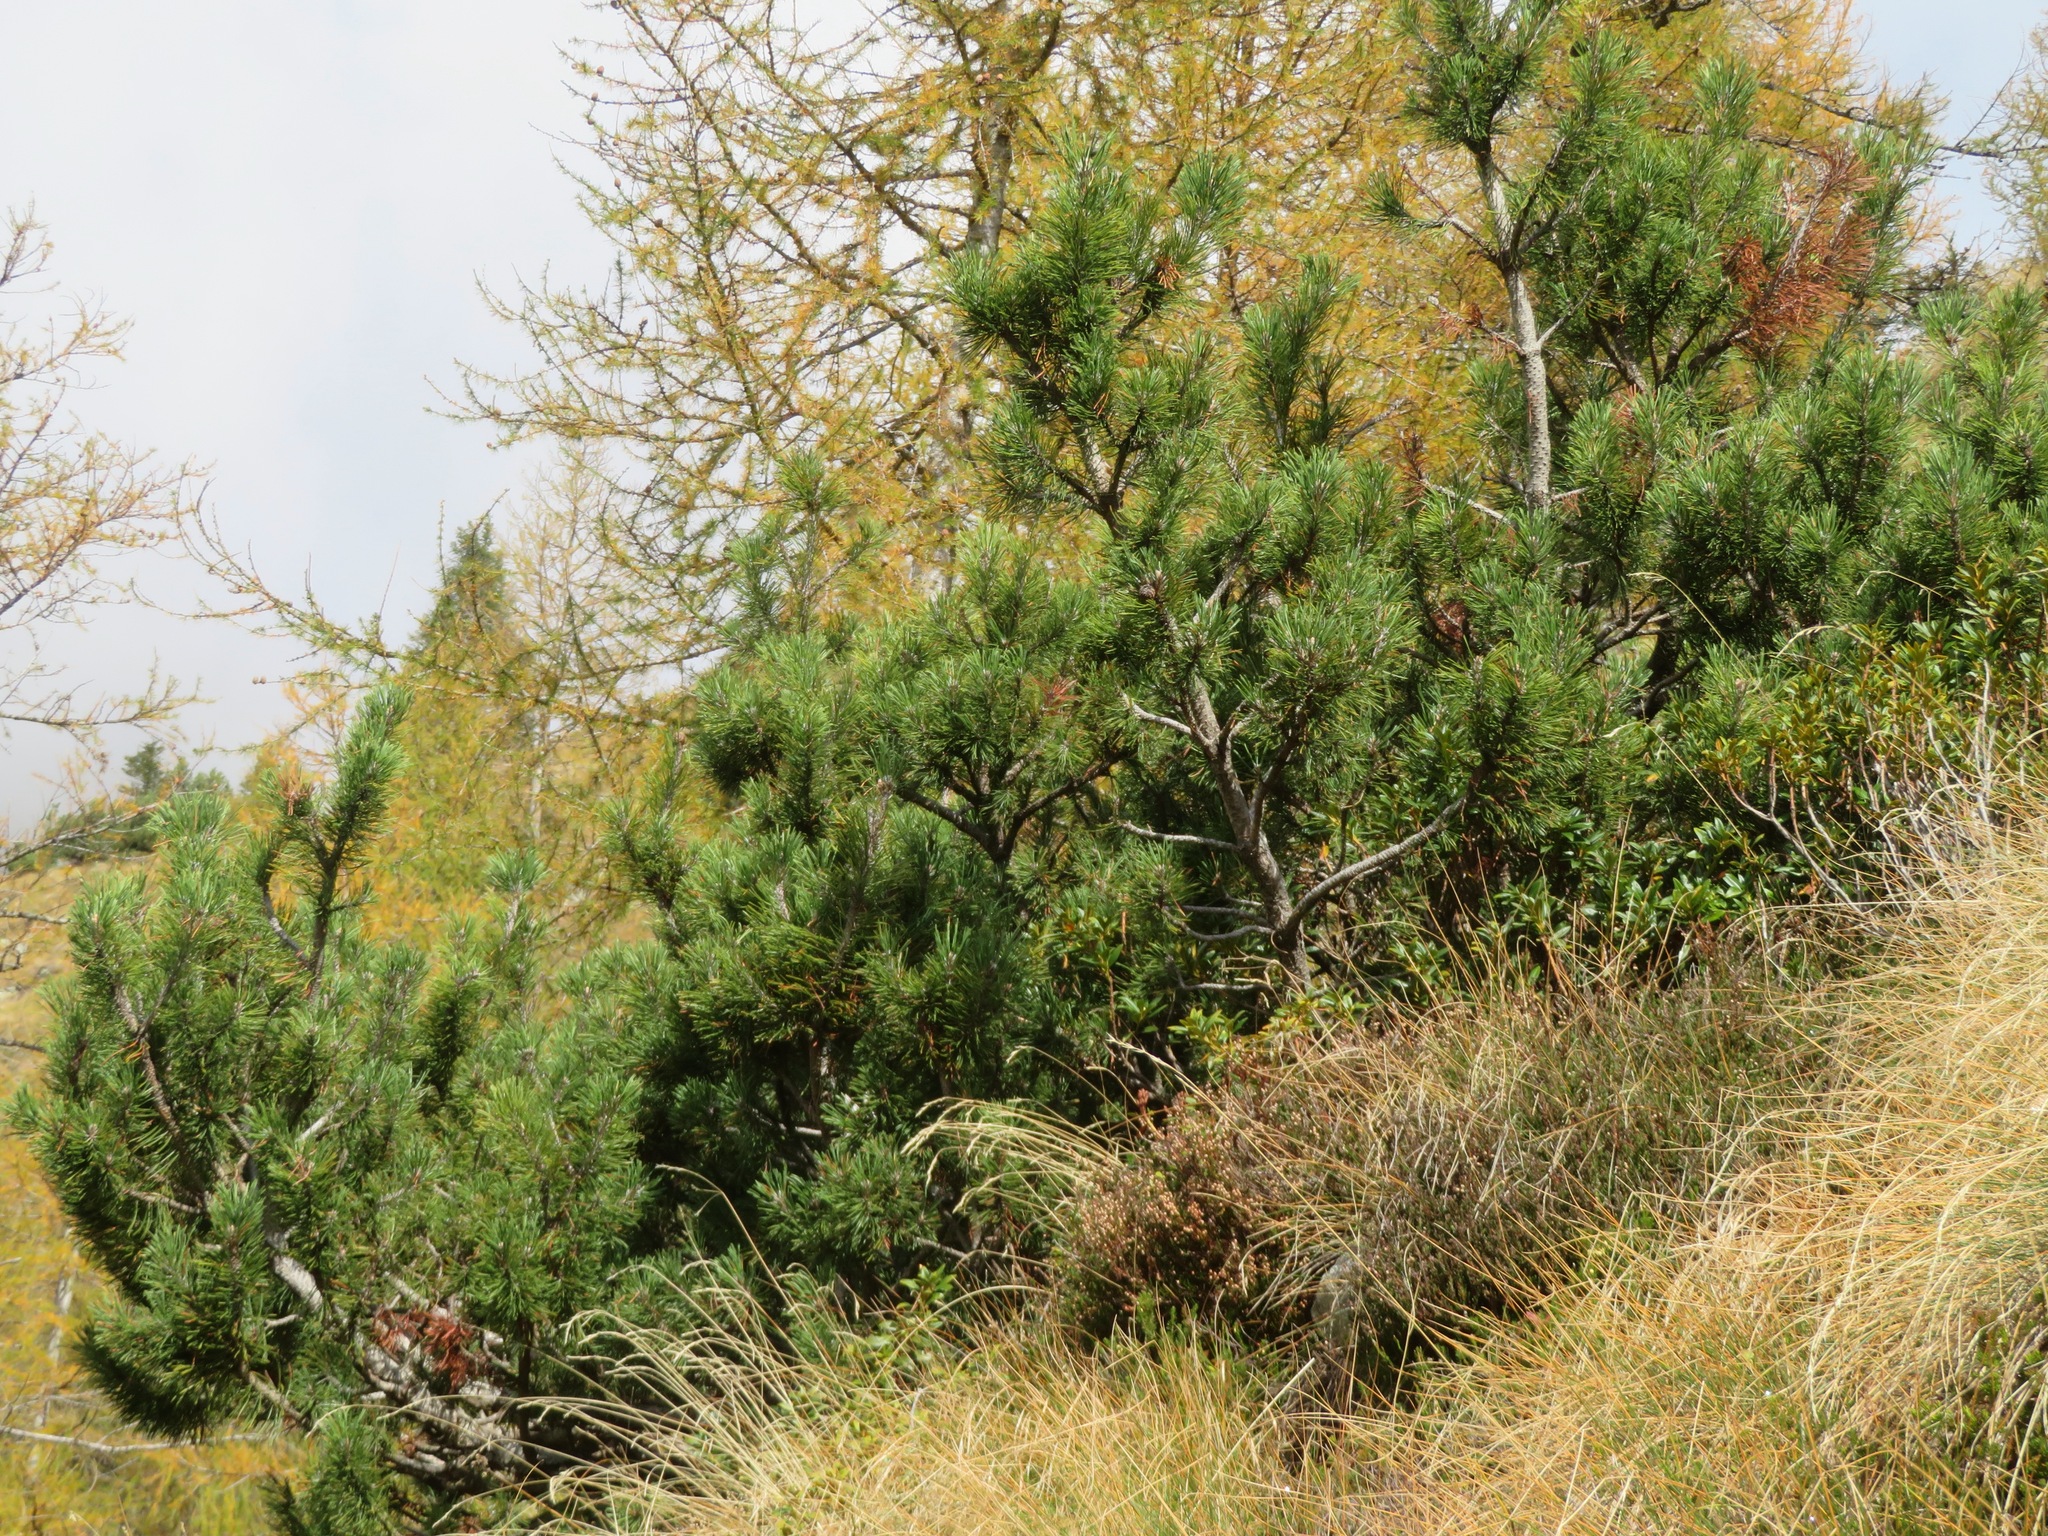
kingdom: Plantae
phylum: Tracheophyta
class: Pinopsida
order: Pinales
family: Pinaceae
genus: Pinus
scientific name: Pinus mugo
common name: Mugo pine
